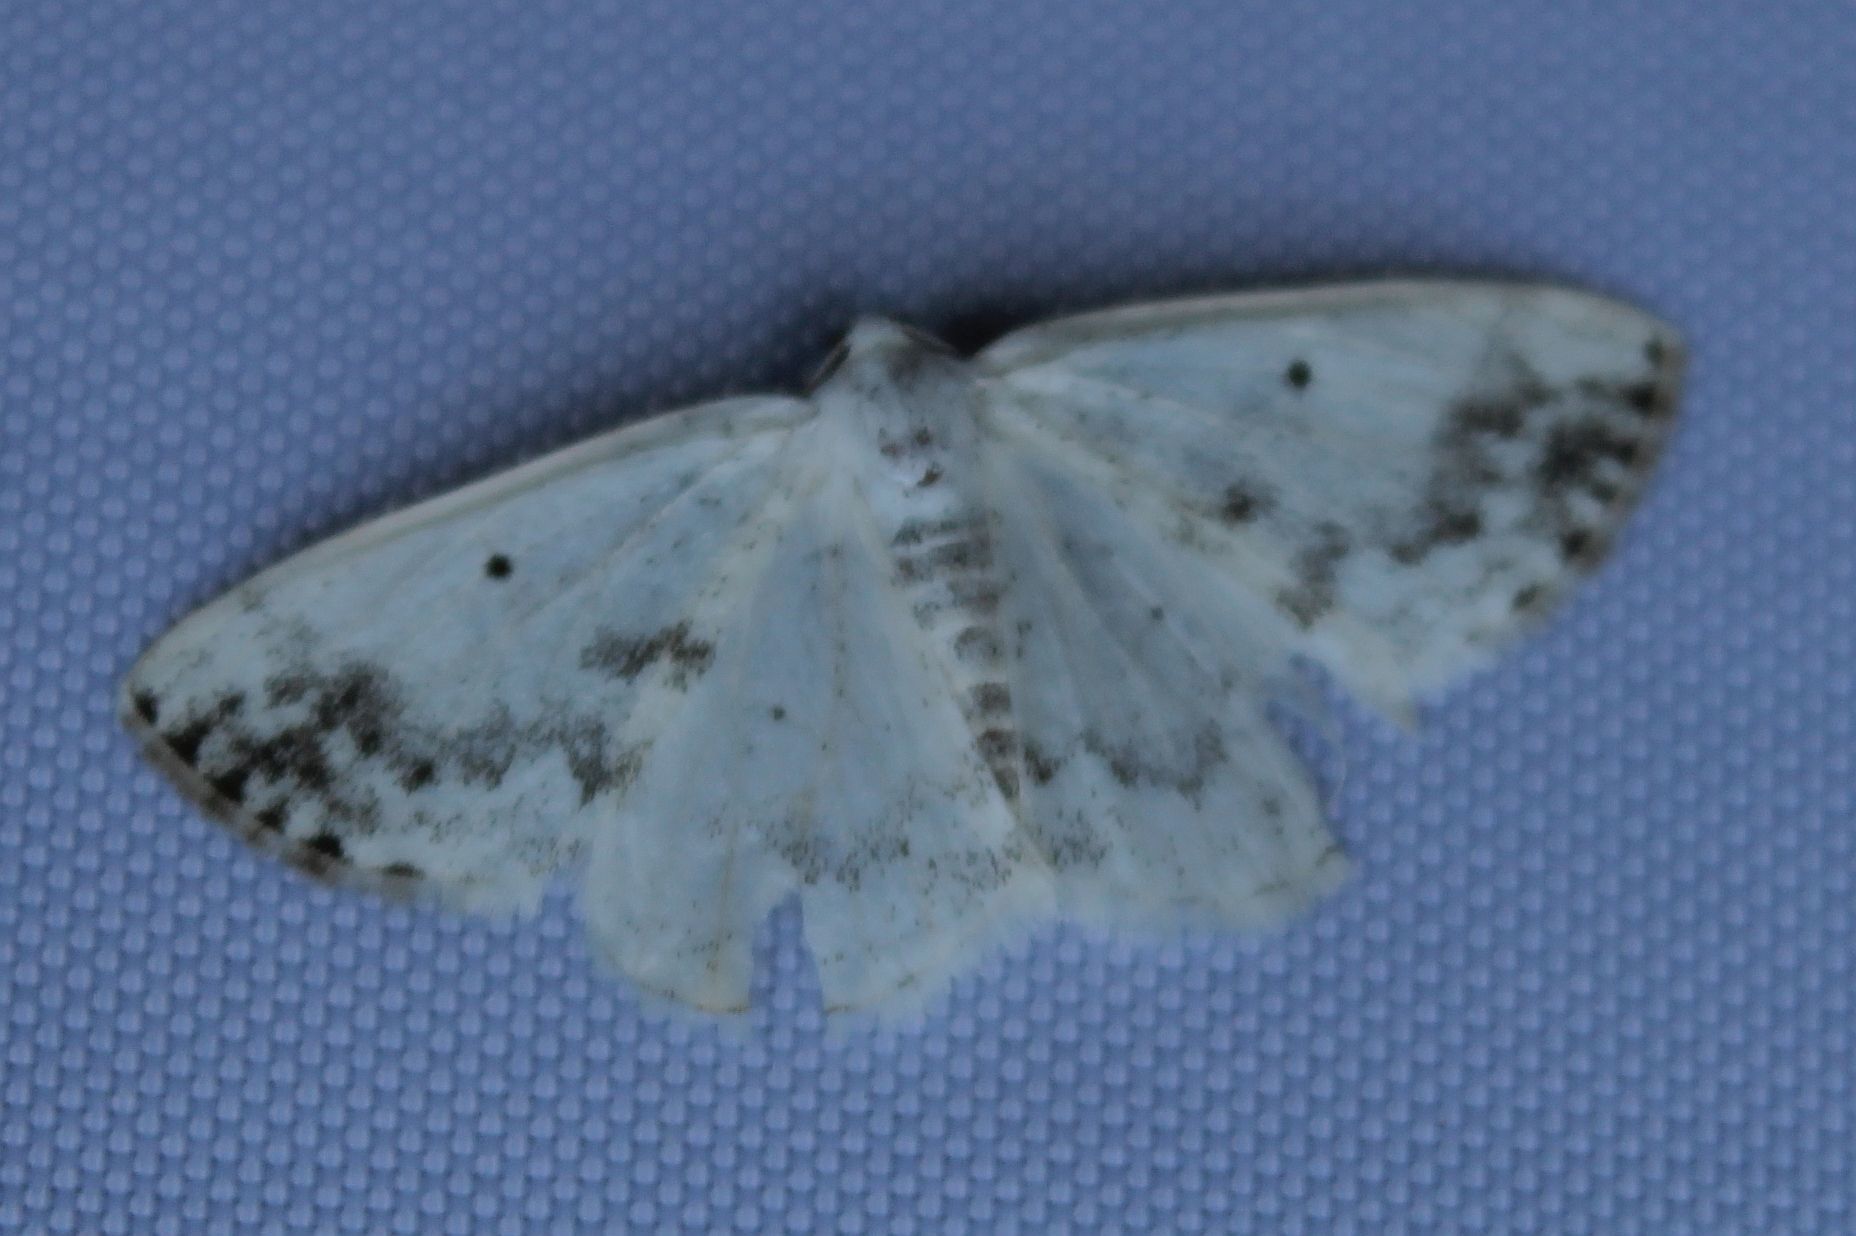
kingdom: Animalia
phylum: Arthropoda
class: Insecta
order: Lepidoptera
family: Geometridae
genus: Lomographa
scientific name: Lomographa temerata
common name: Clouded silver
